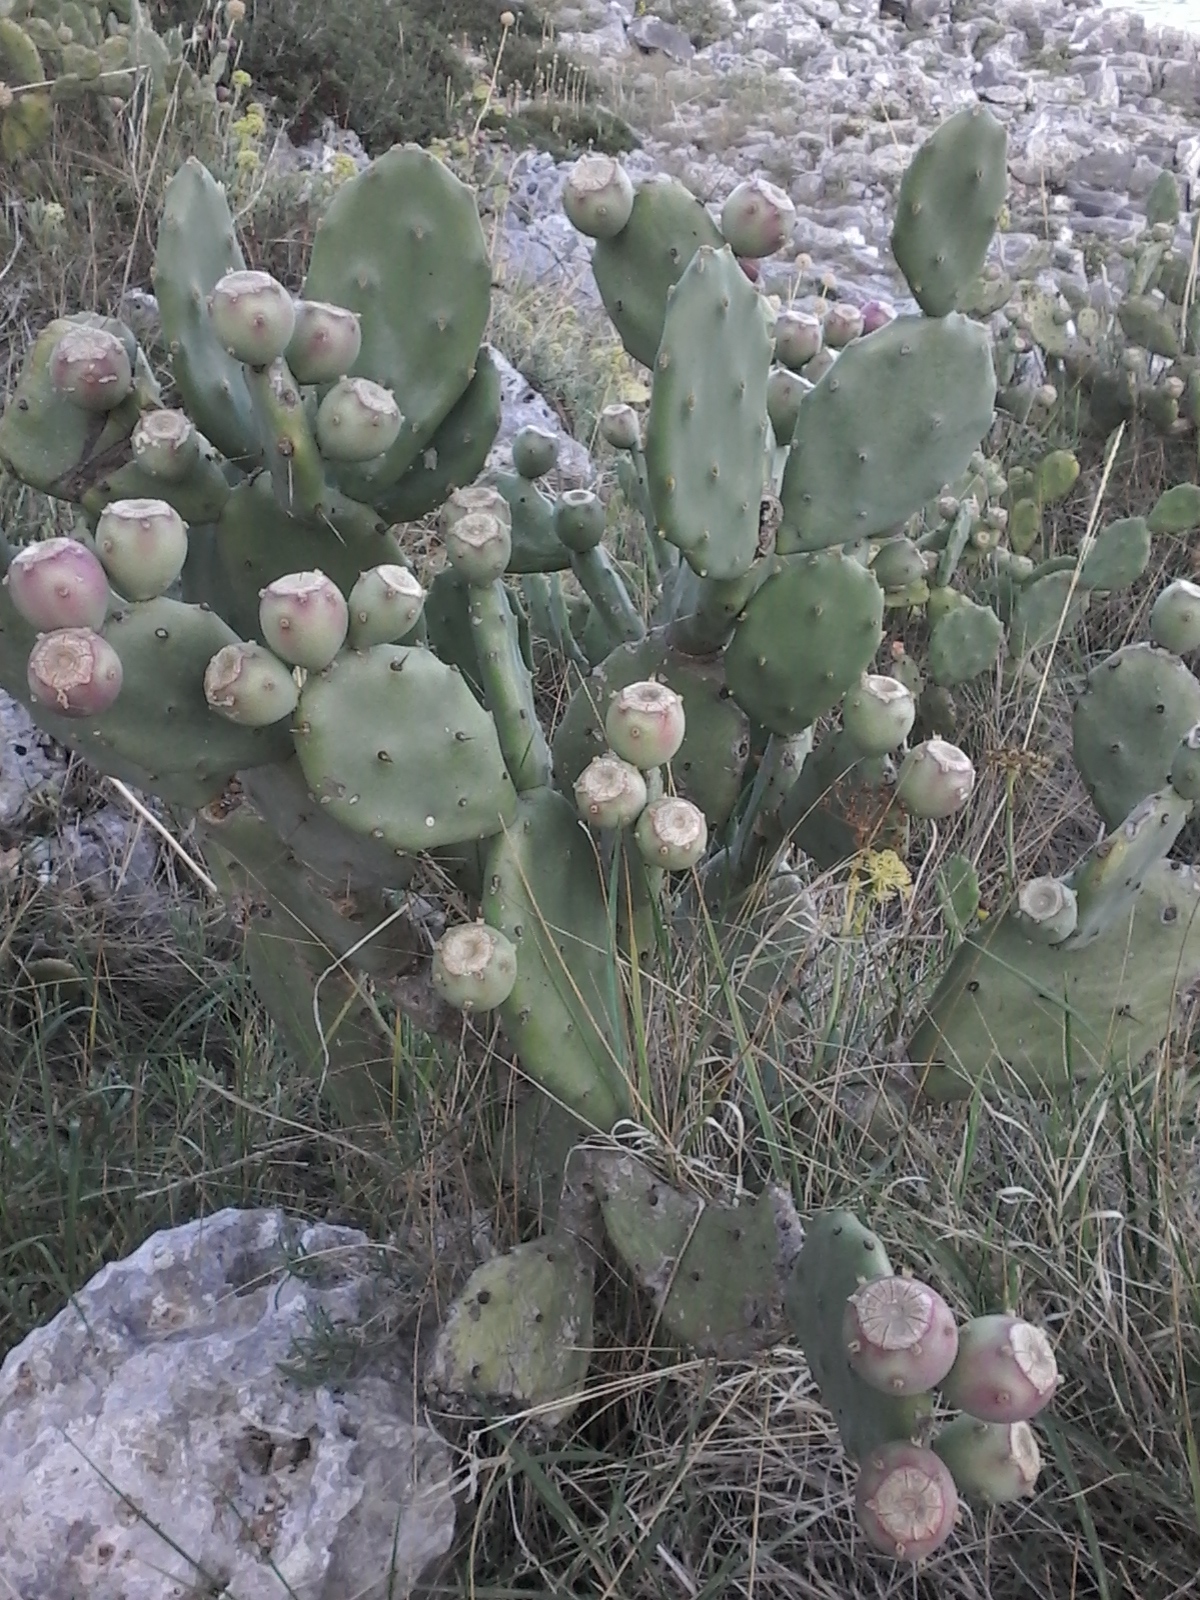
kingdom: Plantae
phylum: Tracheophyta
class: Magnoliopsida
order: Caryophyllales
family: Cactaceae
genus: Opuntia
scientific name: Opuntia stricta
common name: Erect pricklypear
